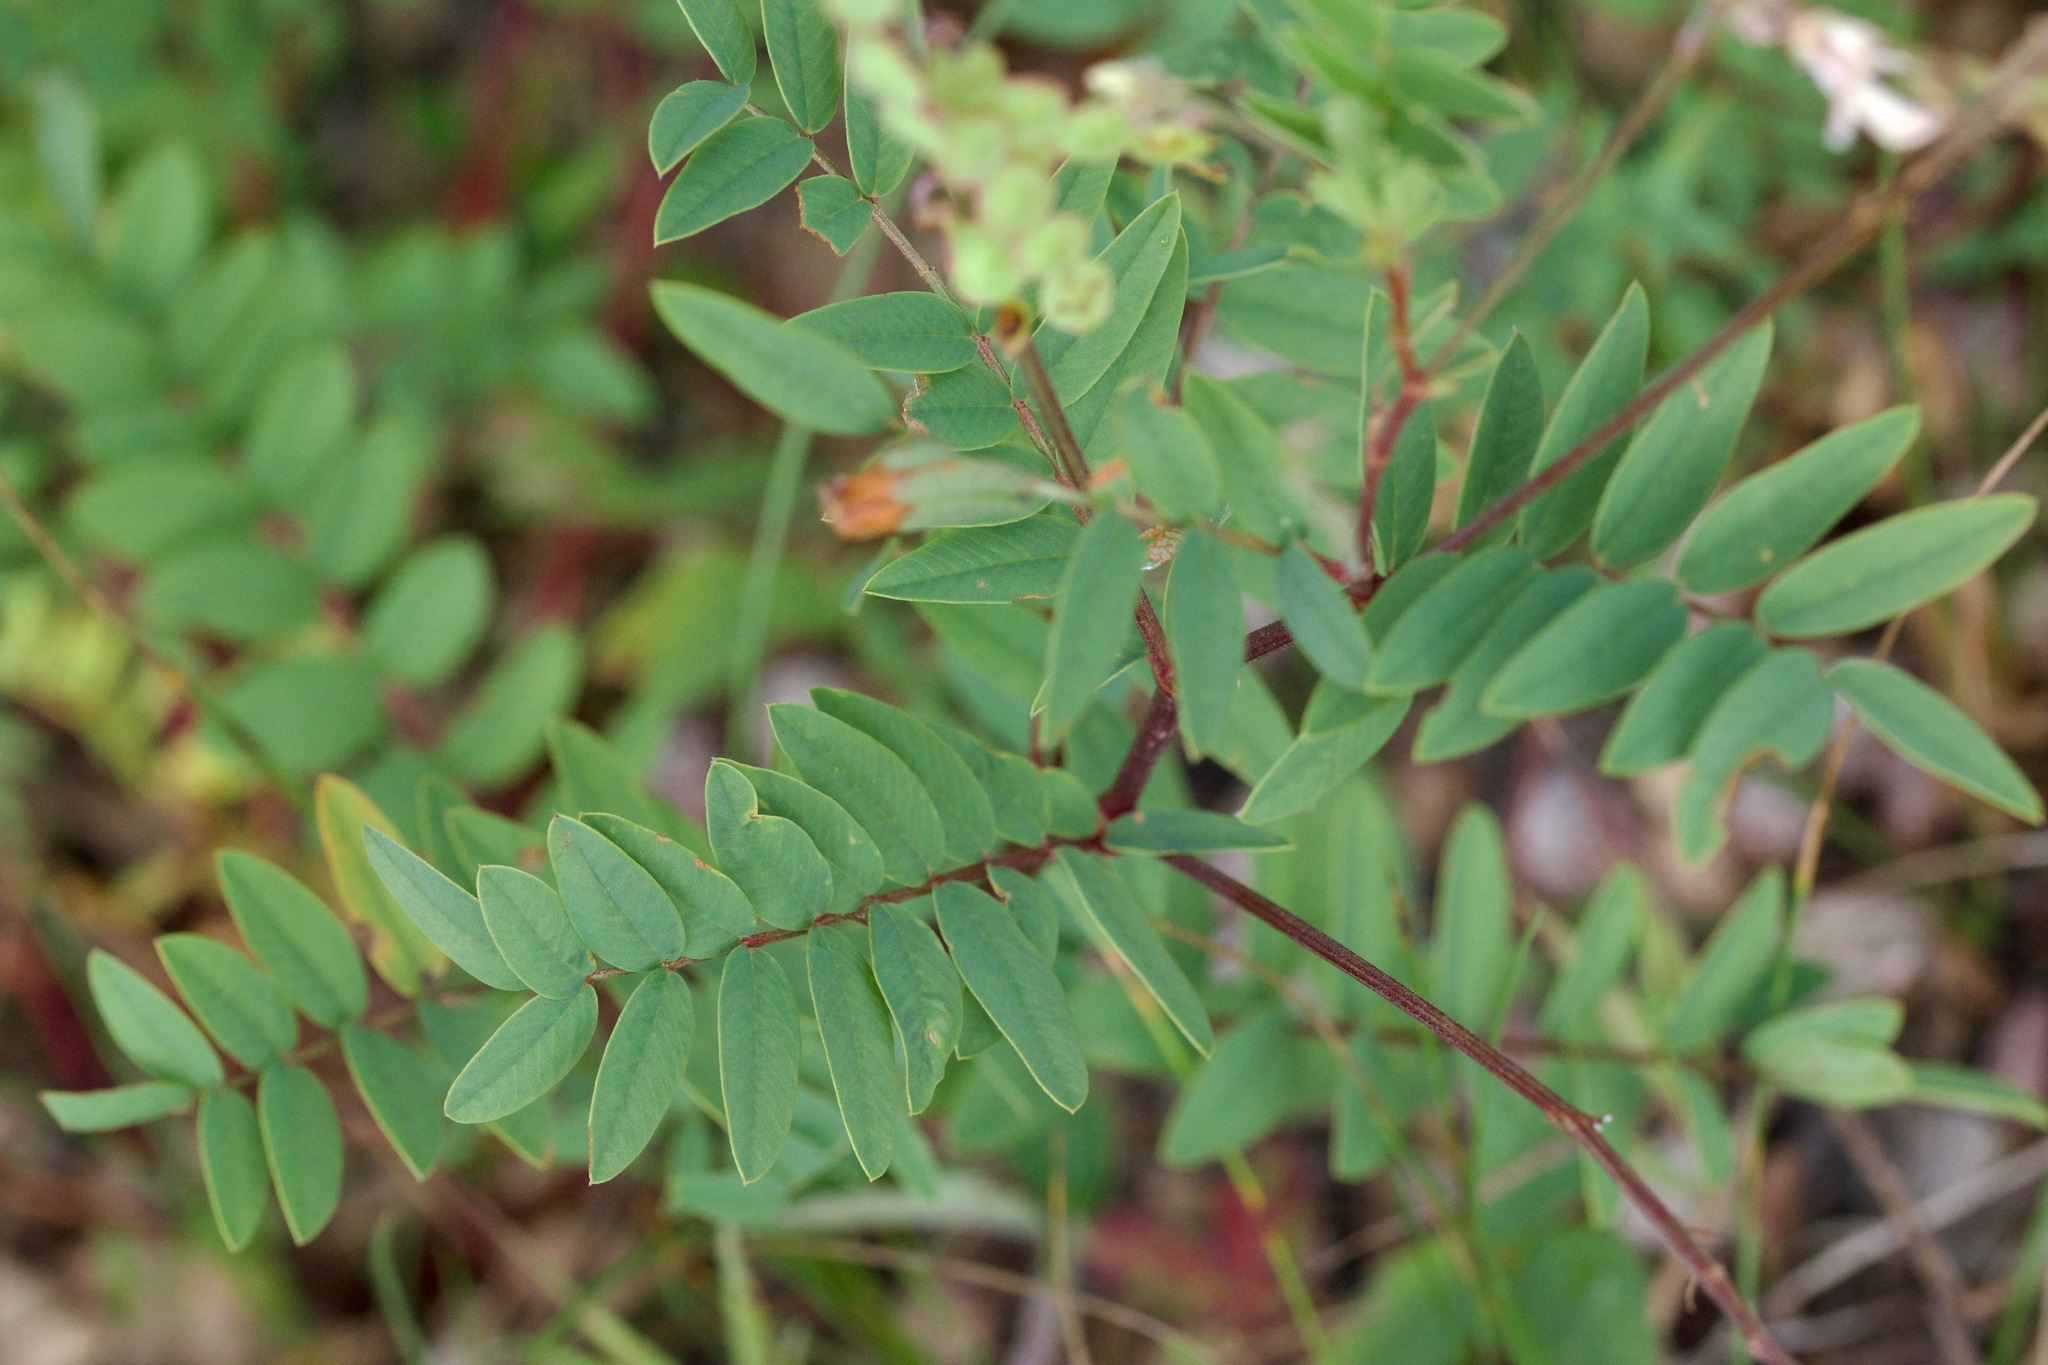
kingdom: Plantae
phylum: Tracheophyta
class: Magnoliopsida
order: Fabales
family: Fabaceae
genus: Hedysarum
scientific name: Hedysarum alpinum
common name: Alpine sweet-vetch
